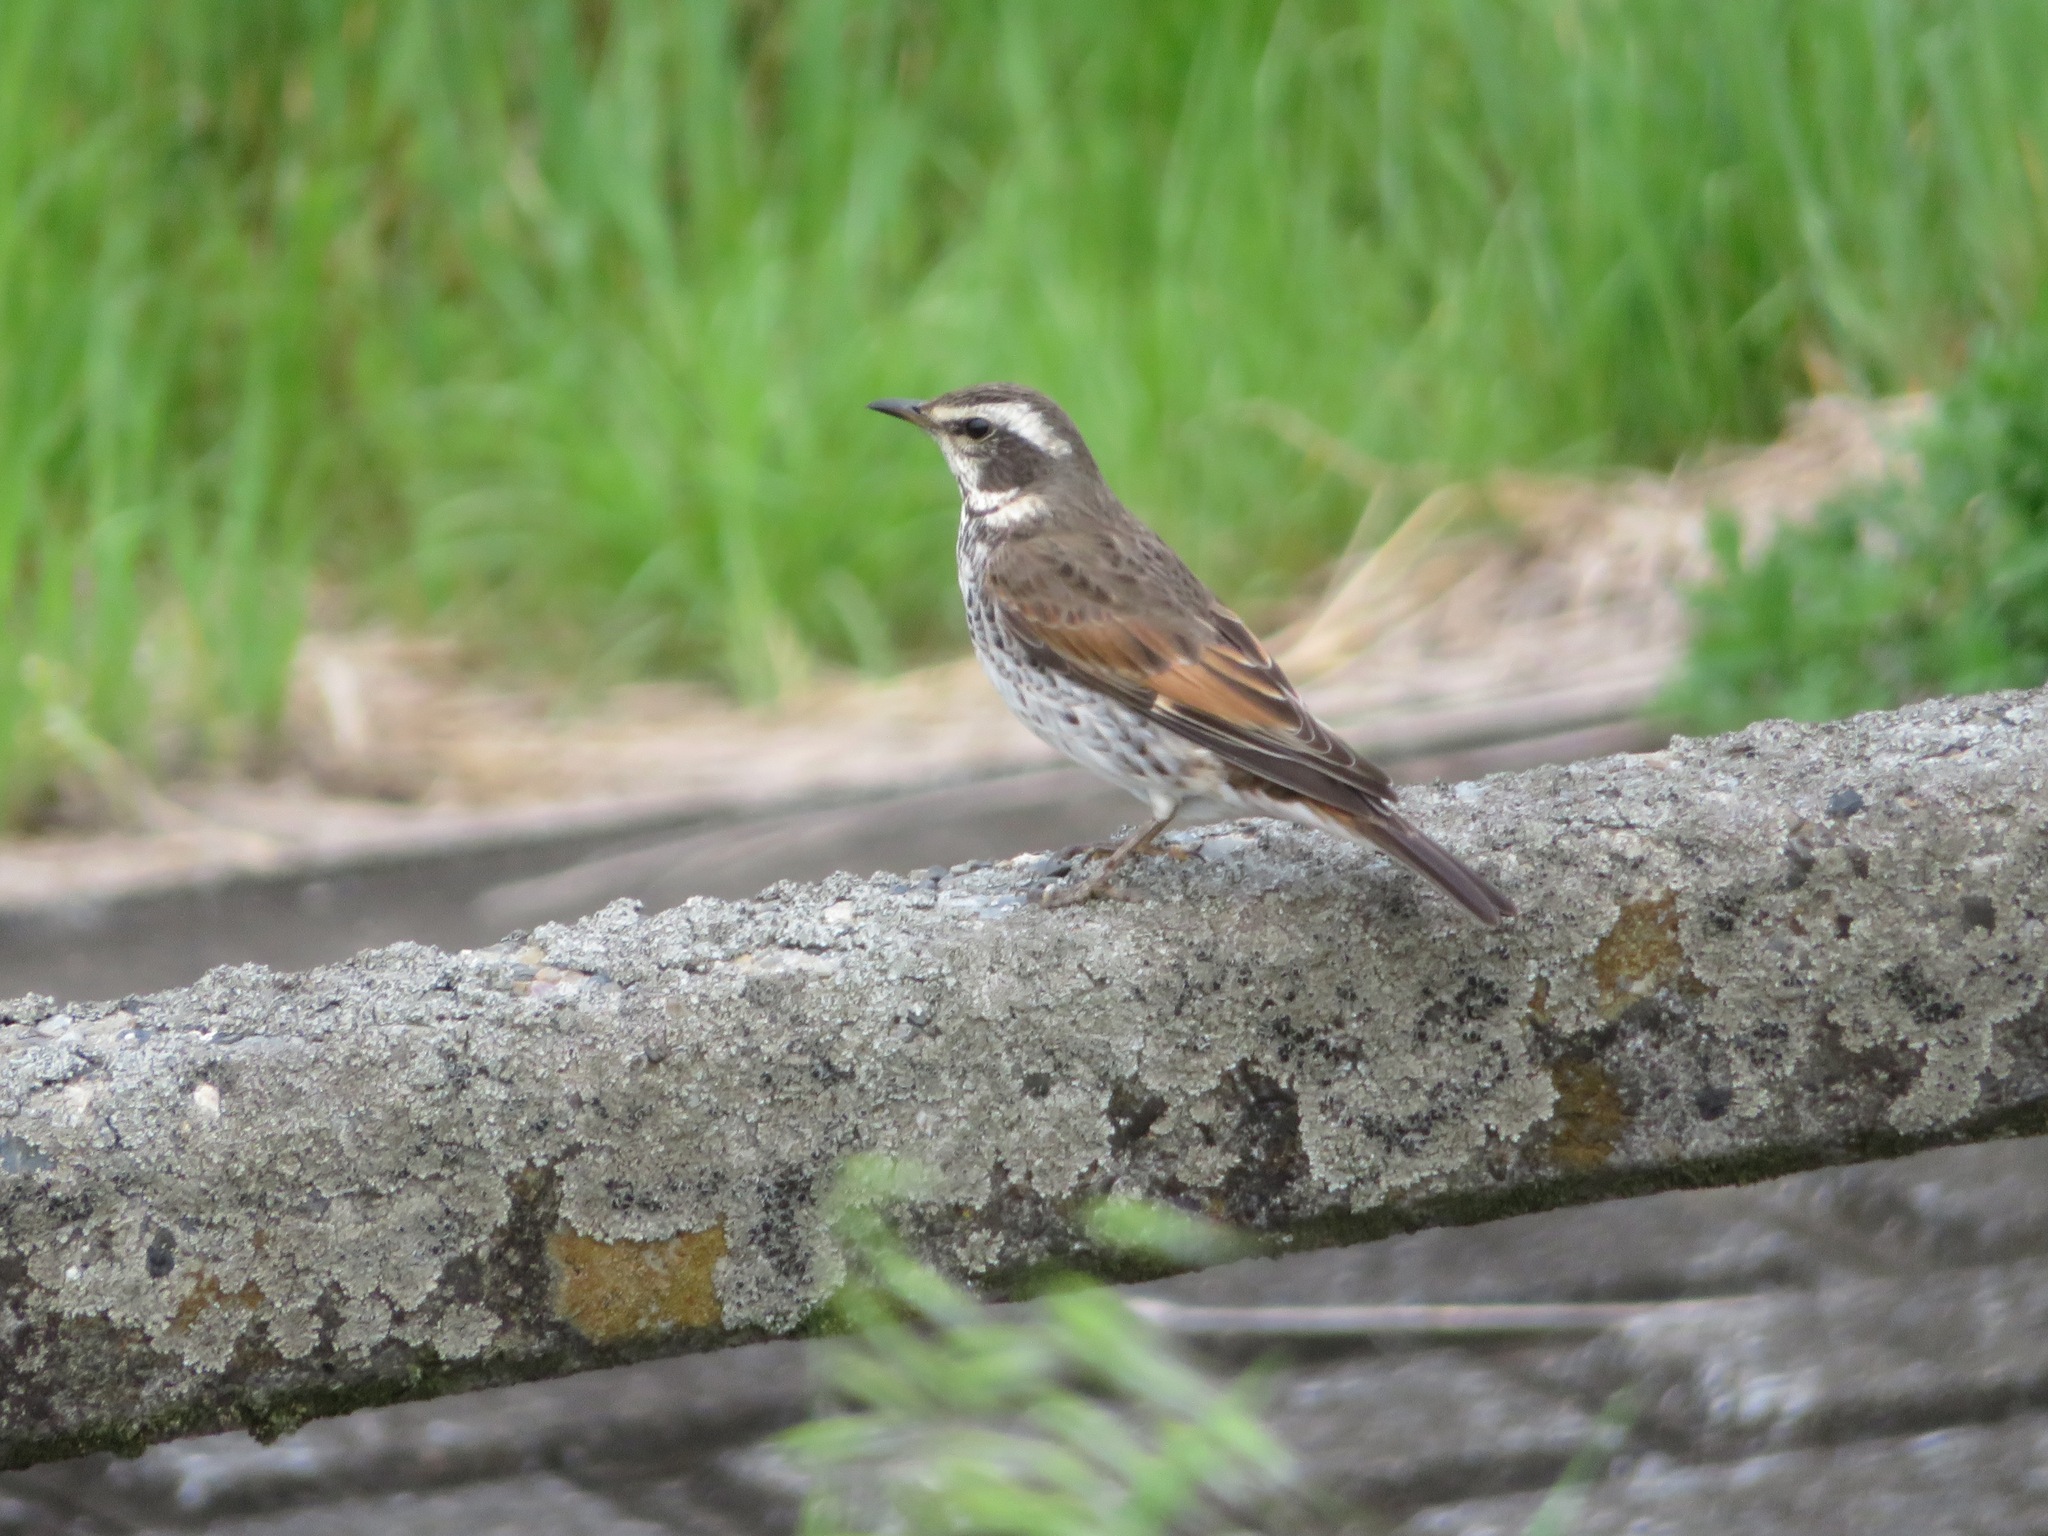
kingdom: Animalia
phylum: Chordata
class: Aves
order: Passeriformes
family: Turdidae
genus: Turdus
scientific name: Turdus eunomus
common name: Dusky thrush
